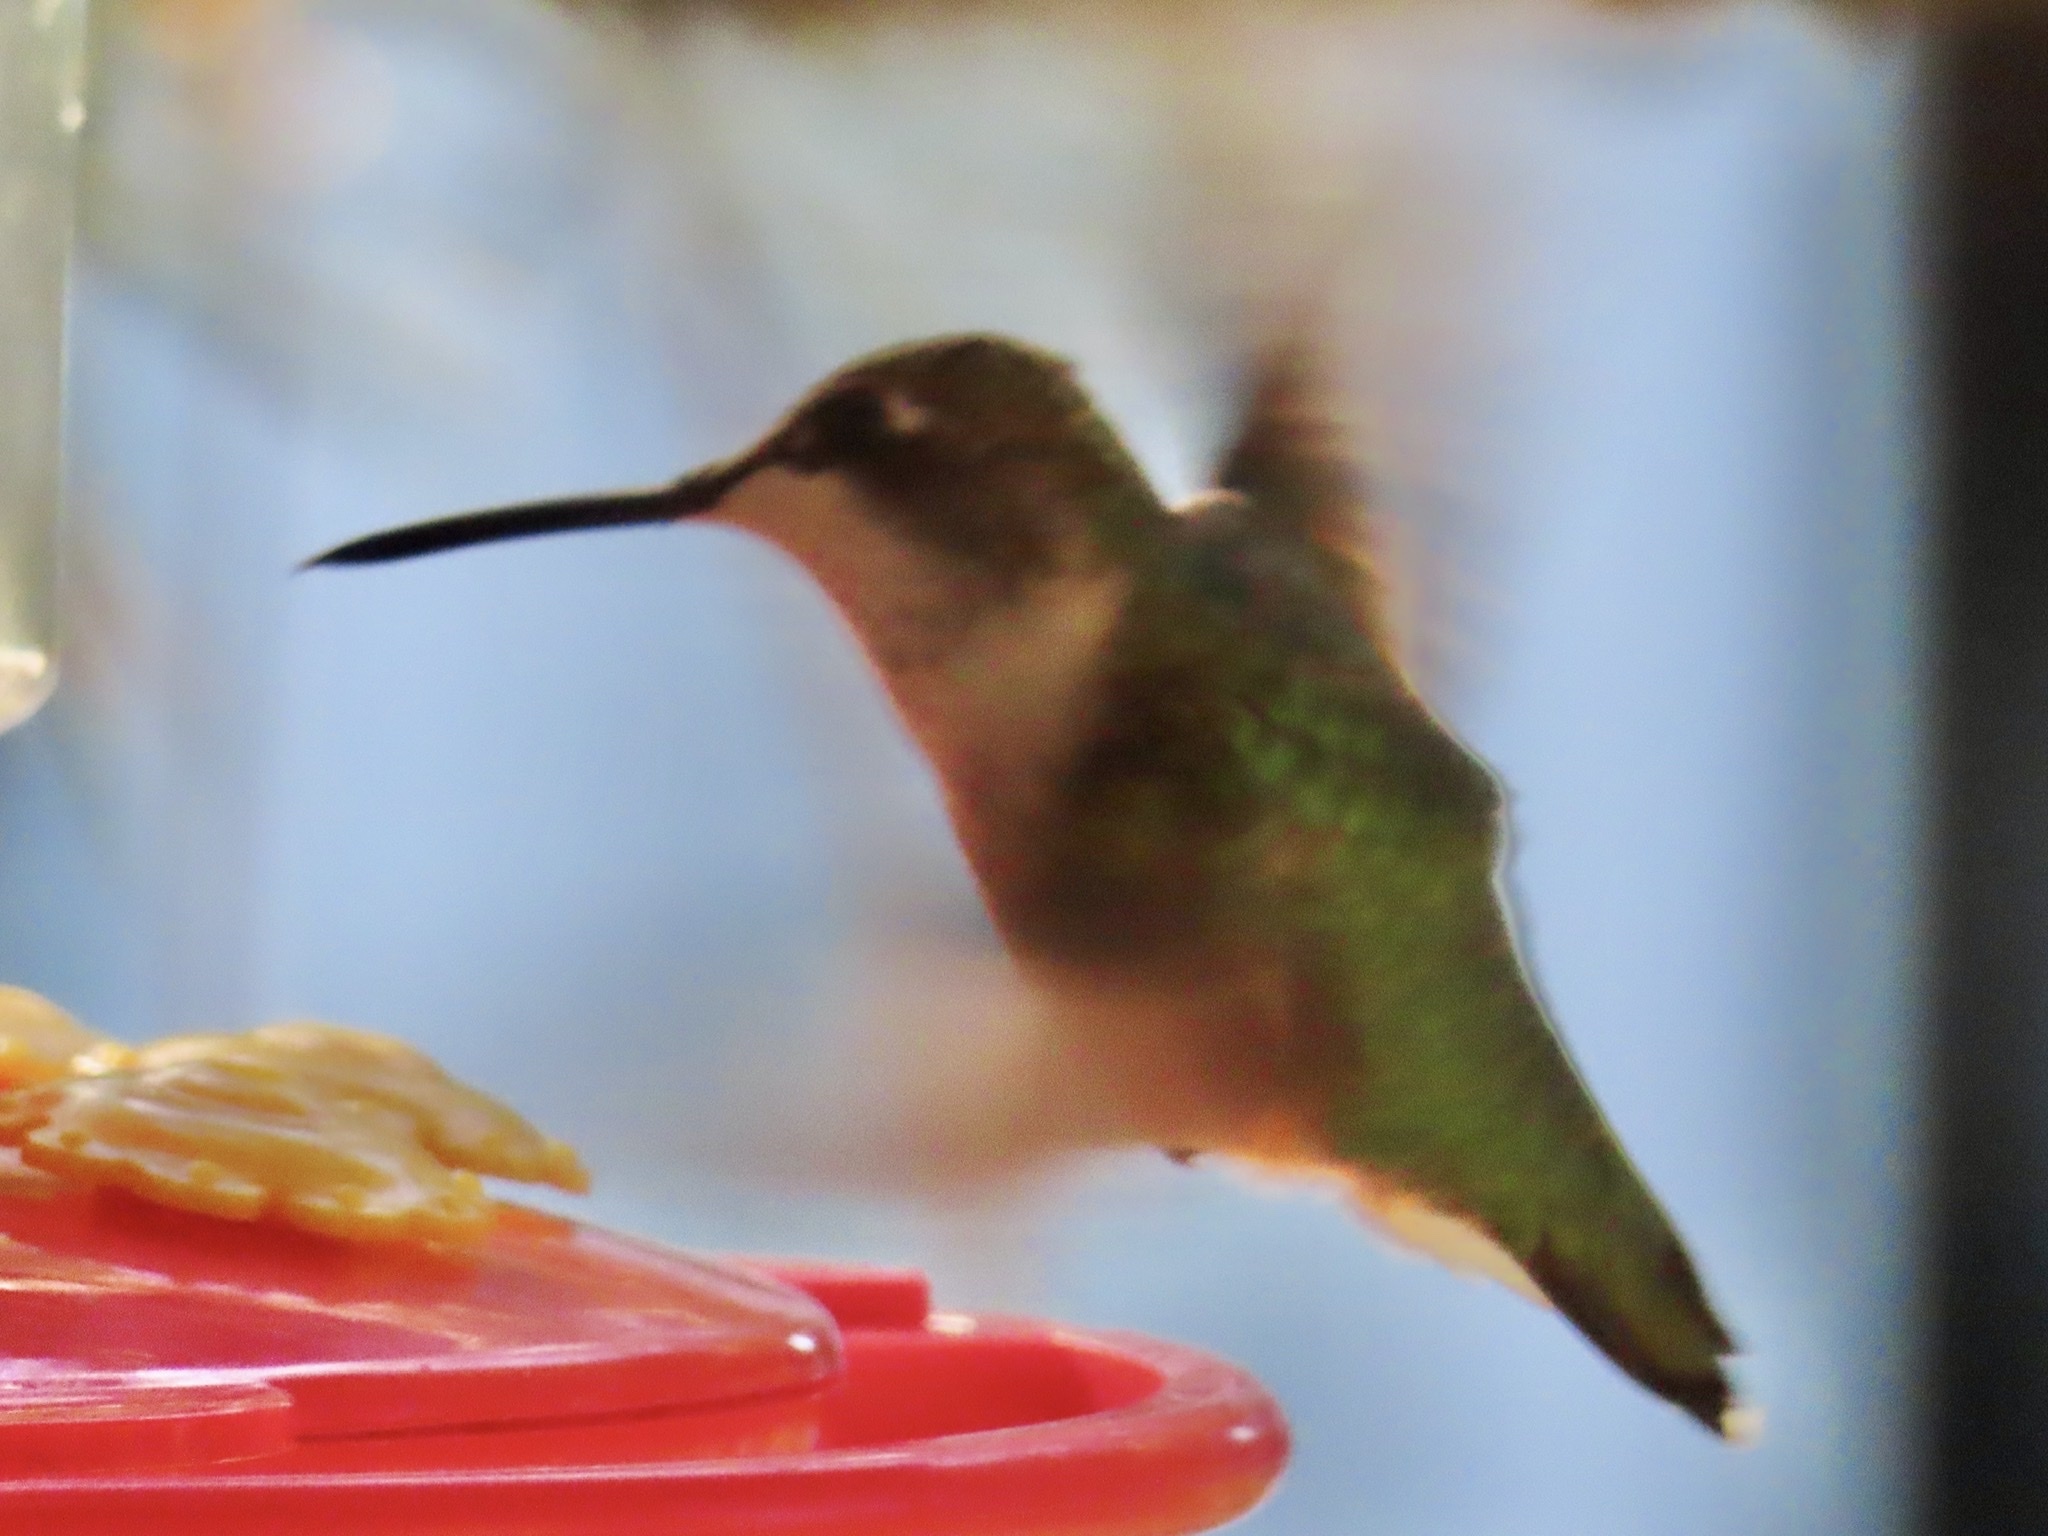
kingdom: Animalia
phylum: Chordata
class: Aves
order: Apodiformes
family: Trochilidae
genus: Archilochus
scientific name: Archilochus colubris
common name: Ruby-throated hummingbird
